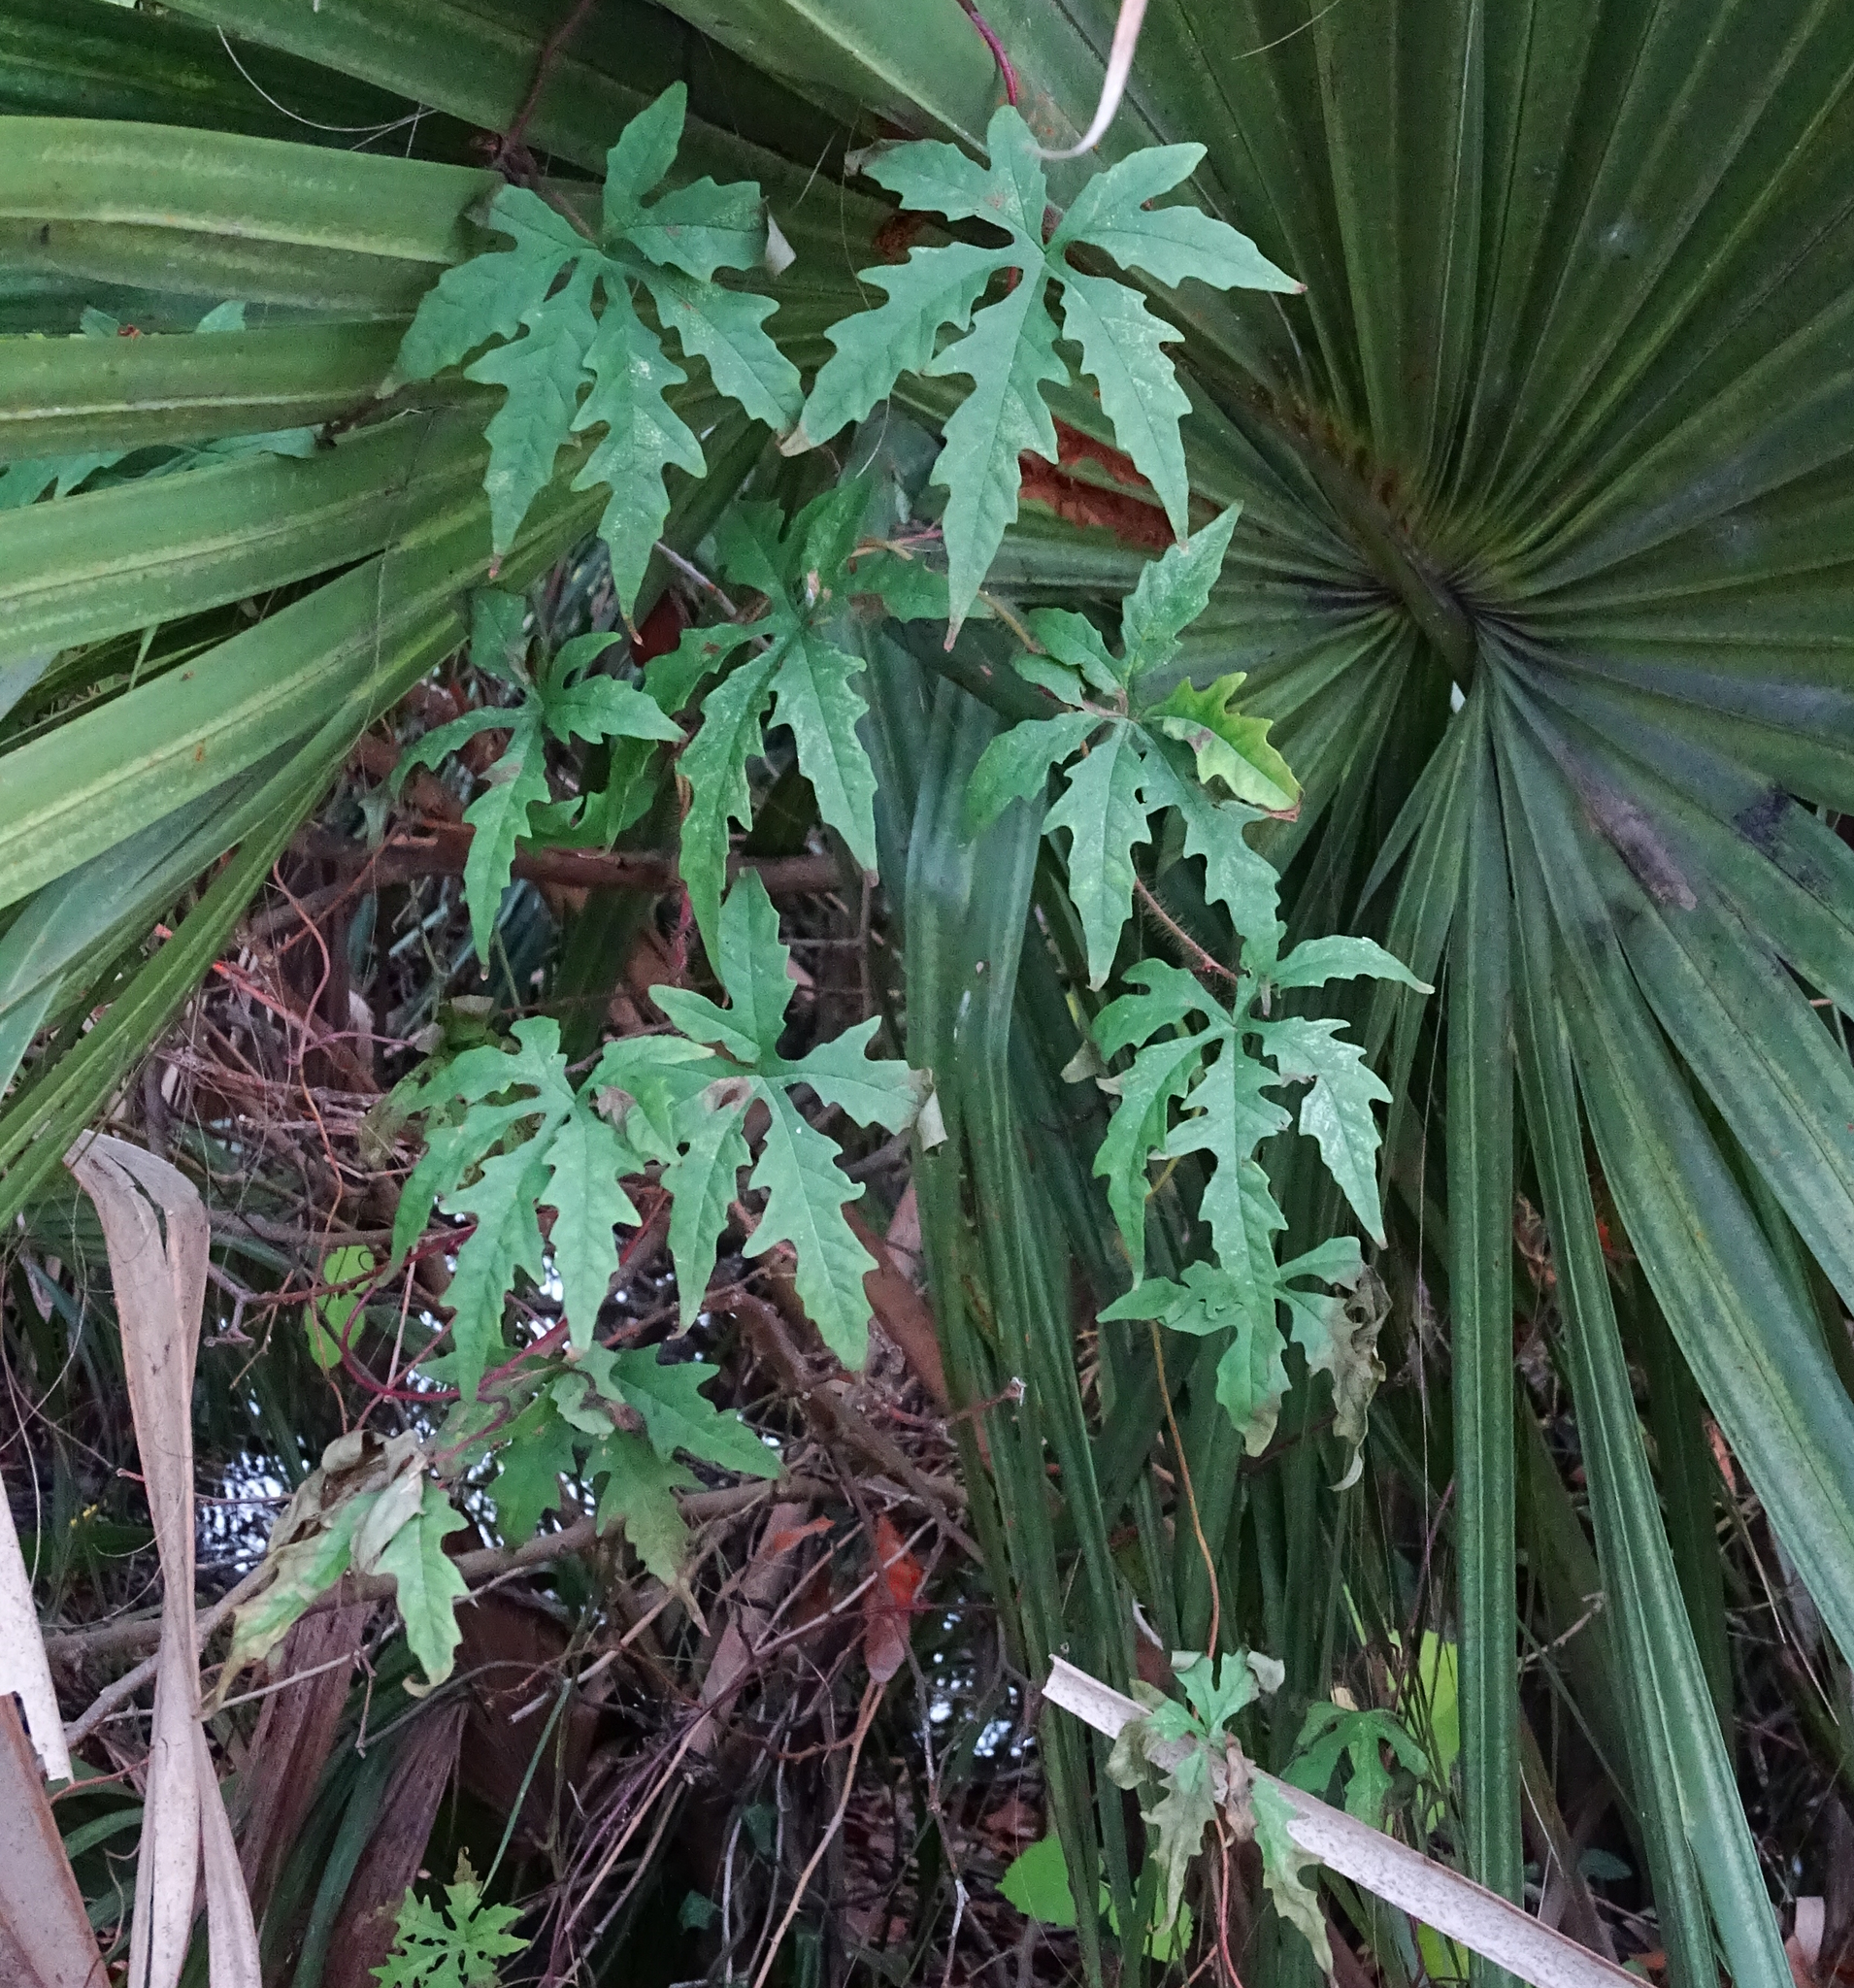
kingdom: Plantae
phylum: Tracheophyta
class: Magnoliopsida
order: Solanales
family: Convolvulaceae
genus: Distimake
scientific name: Distimake dissectus
